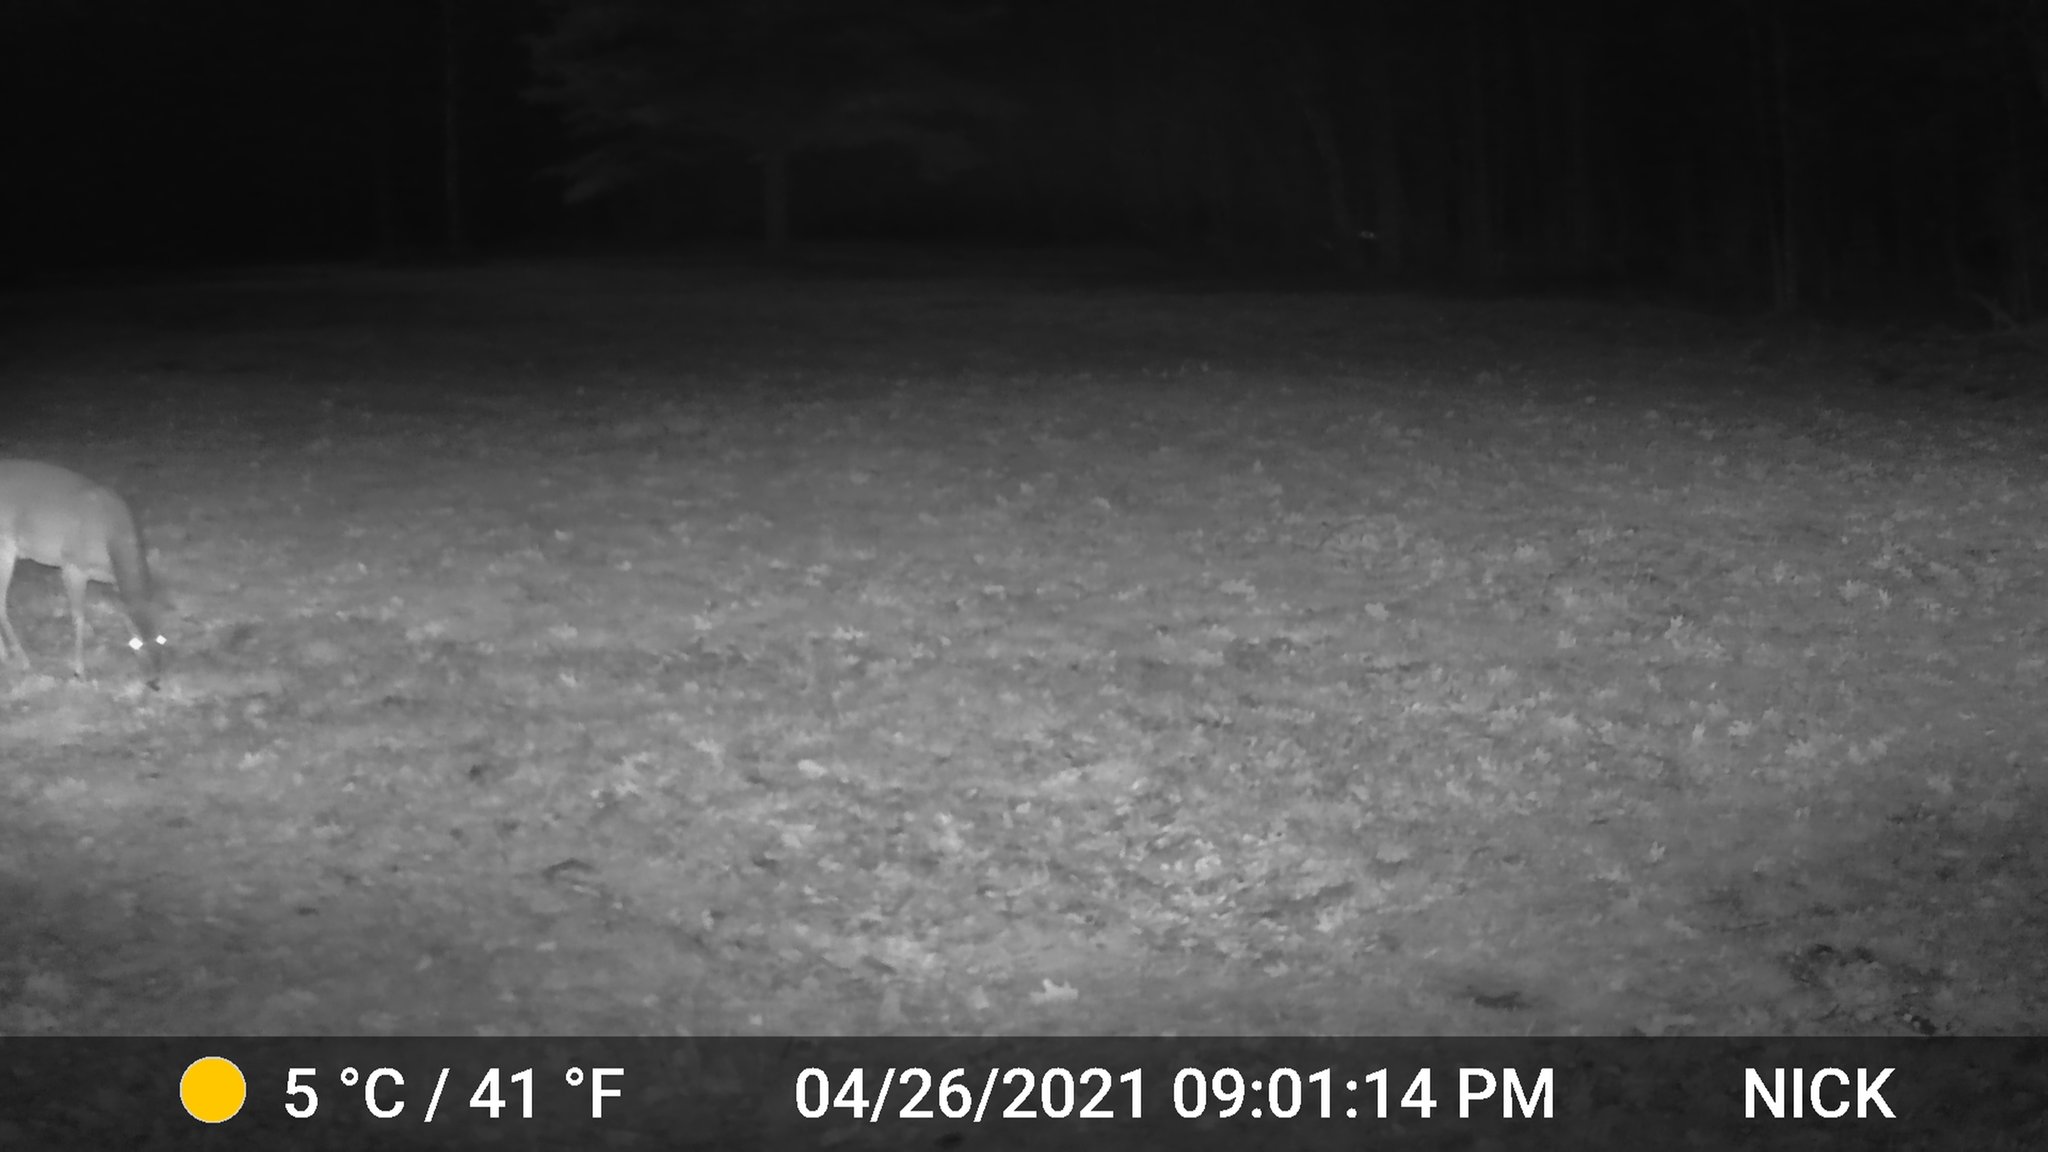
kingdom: Animalia
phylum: Chordata
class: Mammalia
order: Artiodactyla
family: Cervidae
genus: Odocoileus
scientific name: Odocoileus virginianus
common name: White-tailed deer
